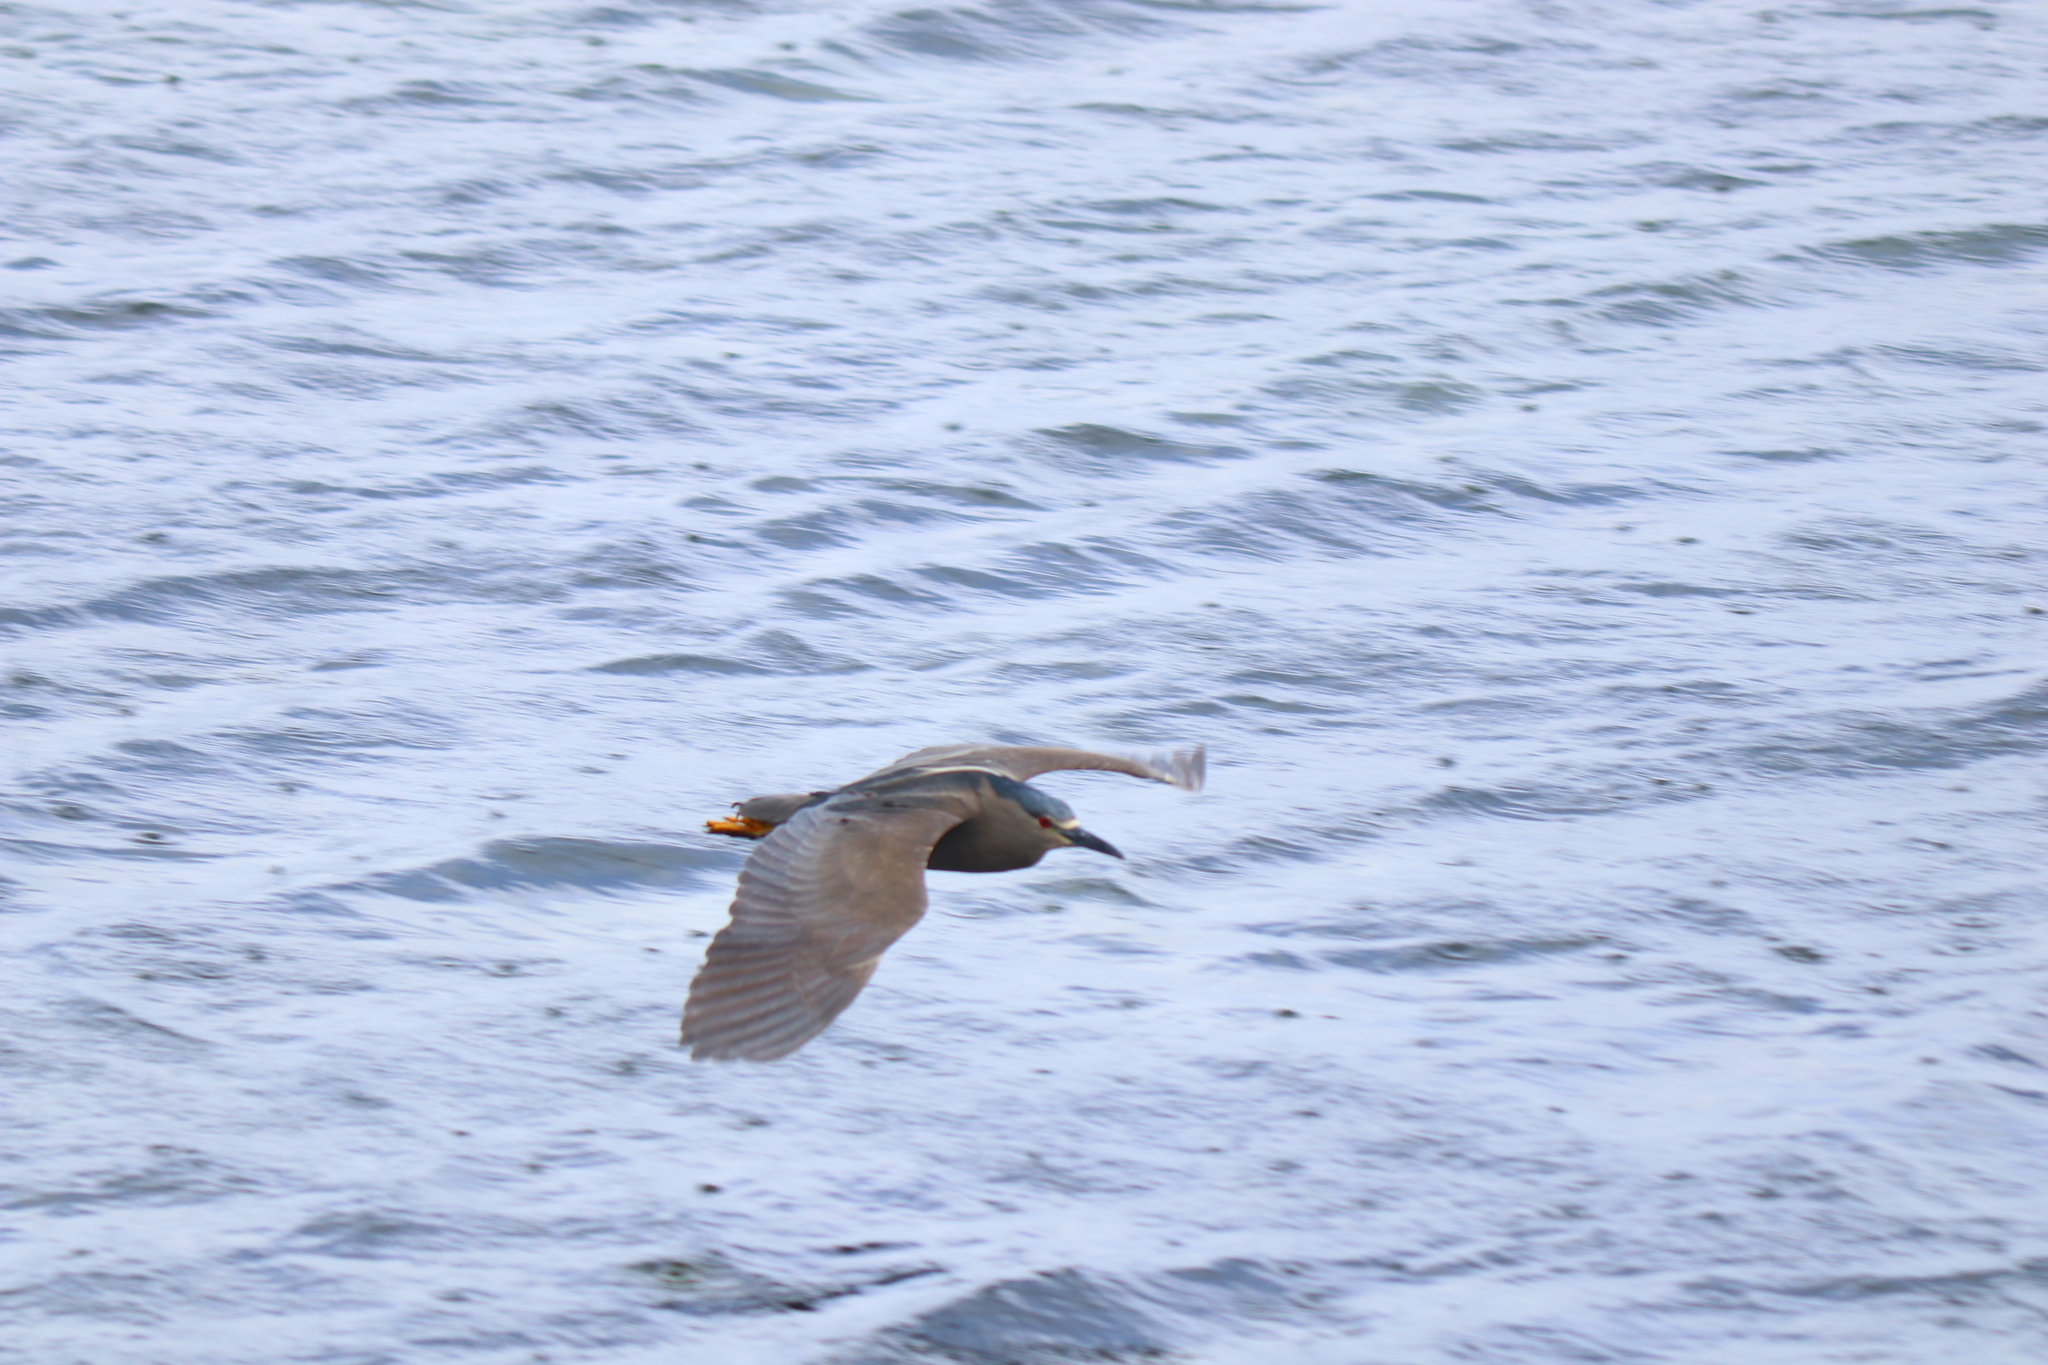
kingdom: Animalia
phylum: Chordata
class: Aves
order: Pelecaniformes
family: Ardeidae
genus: Nycticorax
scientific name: Nycticorax nycticorax
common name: Black-crowned night heron
